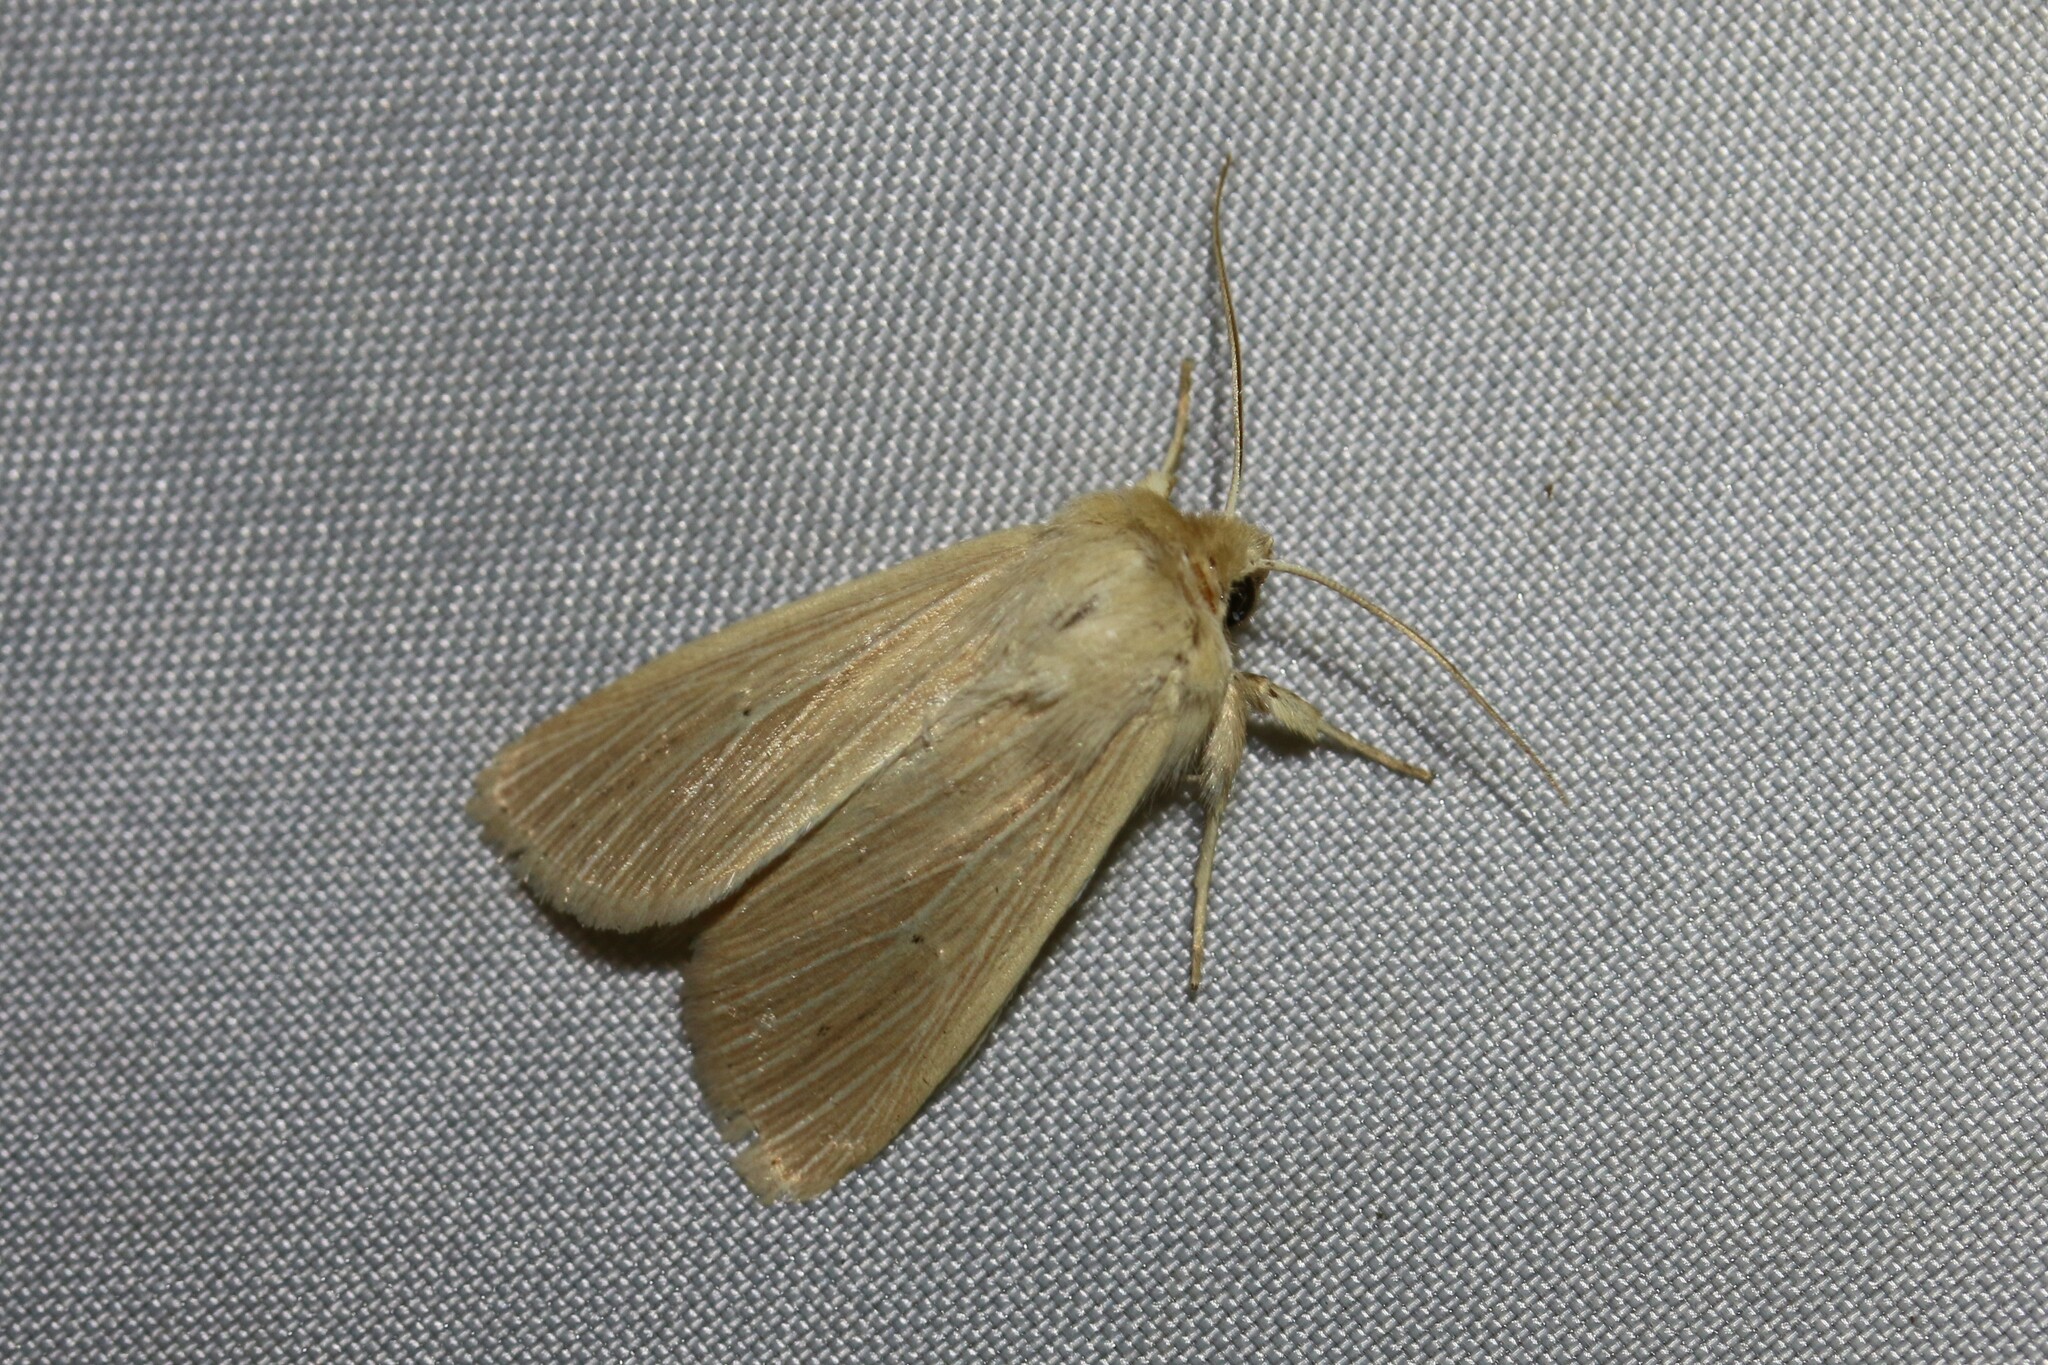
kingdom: Animalia
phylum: Arthropoda
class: Insecta
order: Lepidoptera
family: Noctuidae
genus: Mythimna
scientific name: Mythimna pallens
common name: Common wainscot
